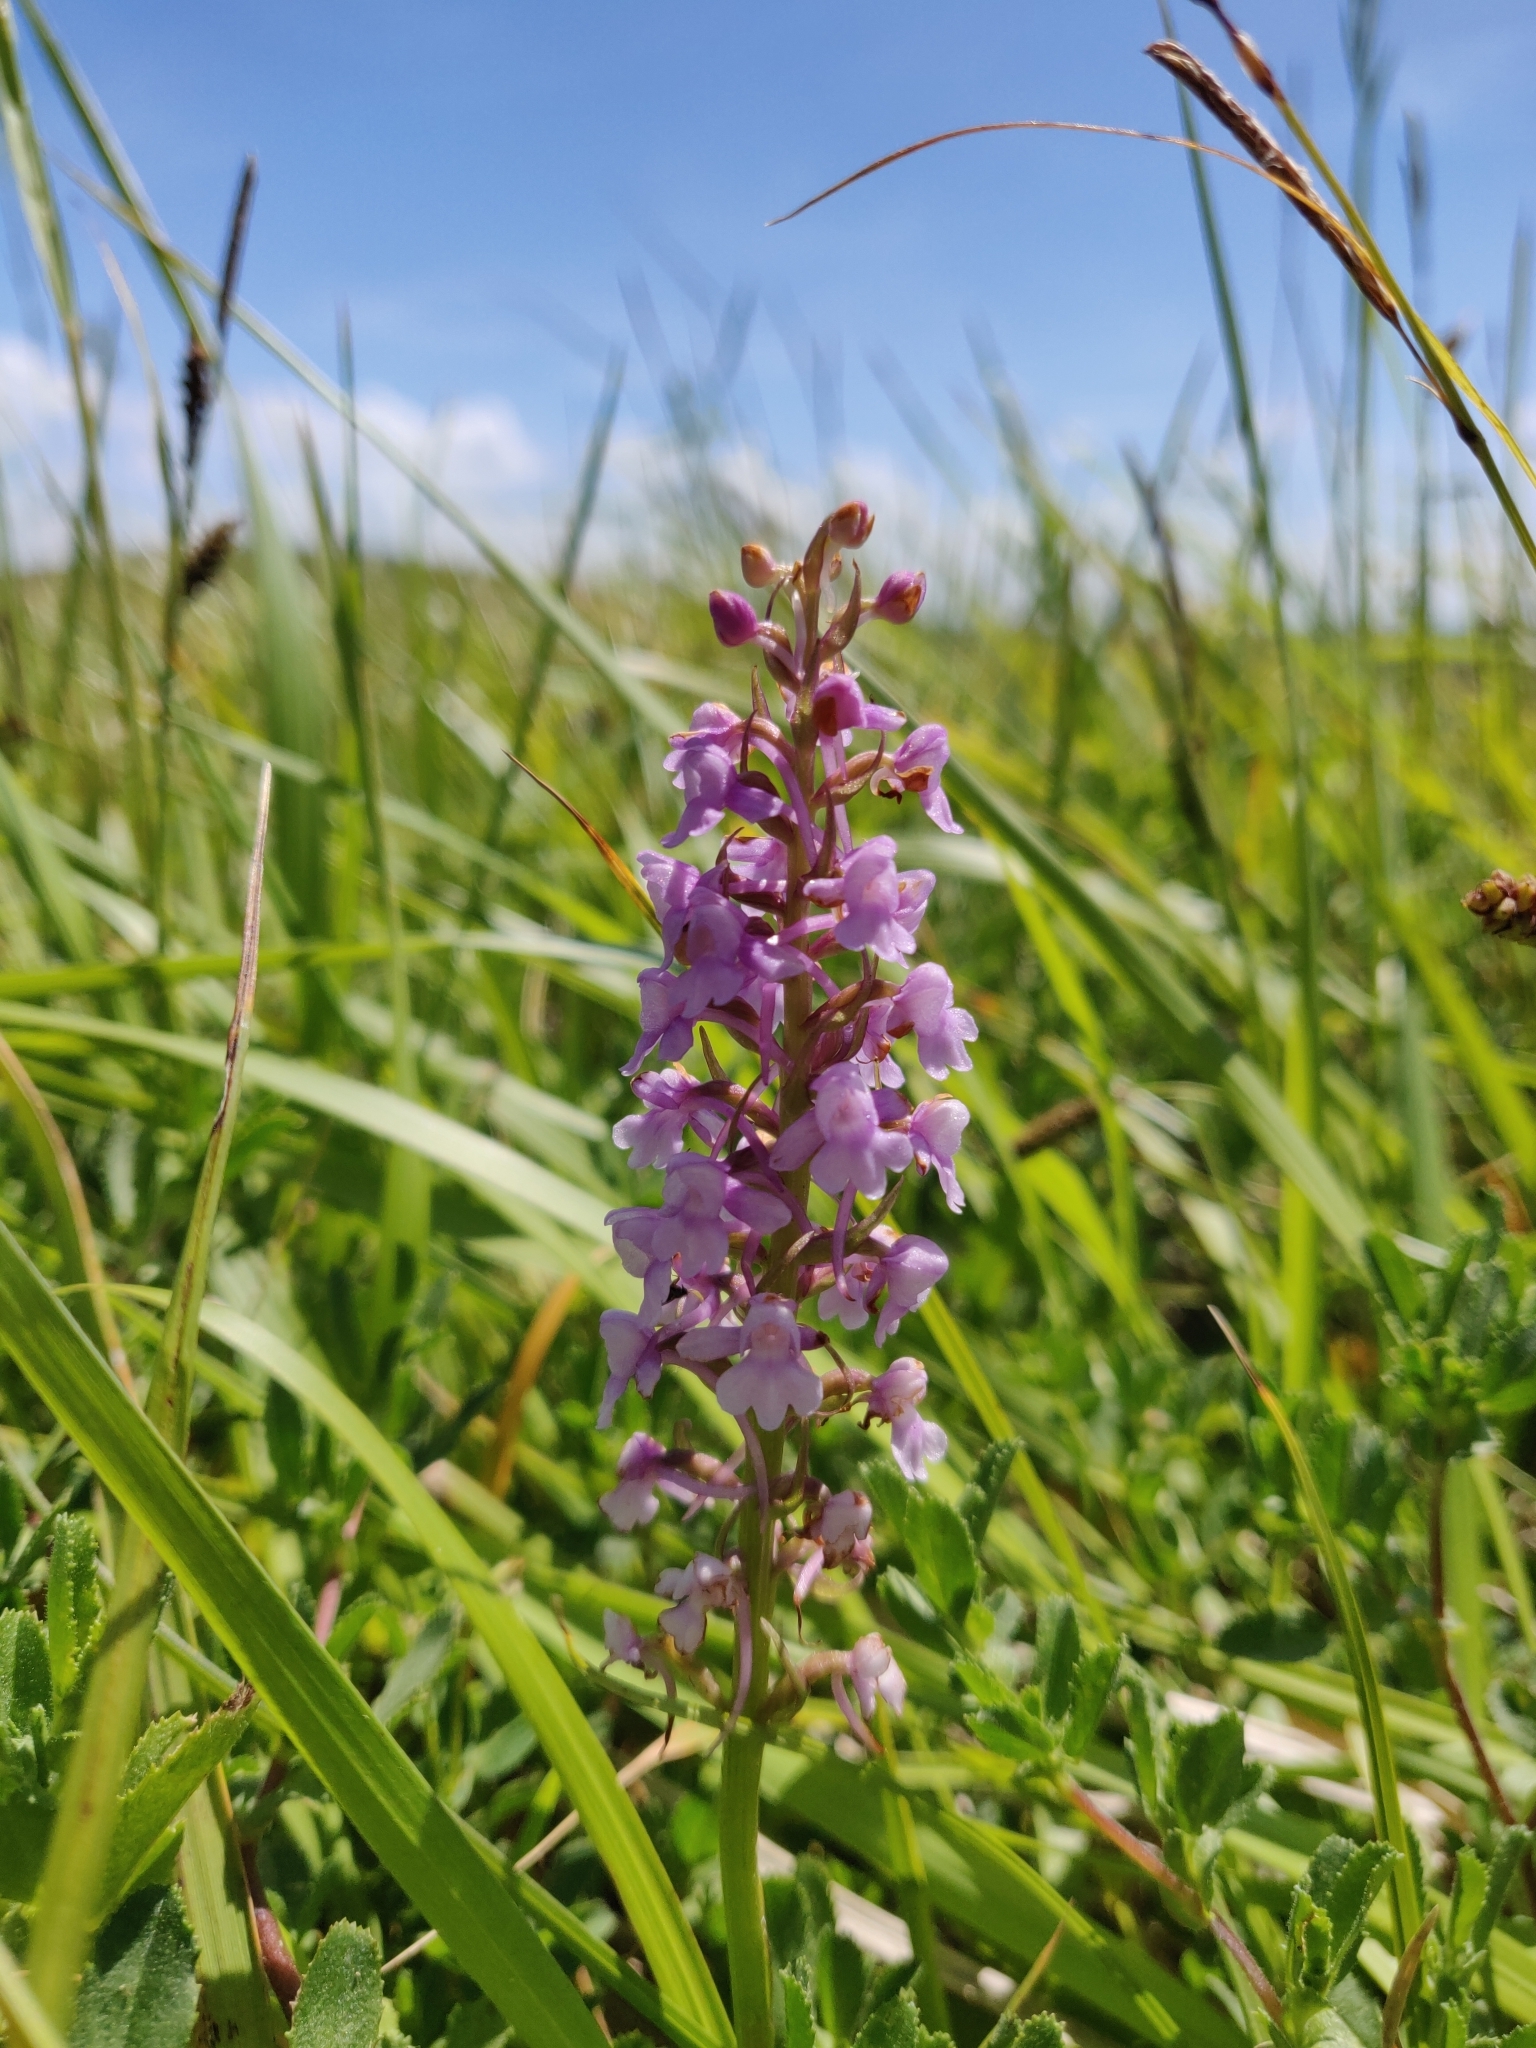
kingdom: Plantae
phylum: Tracheophyta
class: Liliopsida
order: Asparagales
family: Orchidaceae
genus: Gymnadenia
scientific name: Gymnadenia conopsea
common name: Fragrant orchid
